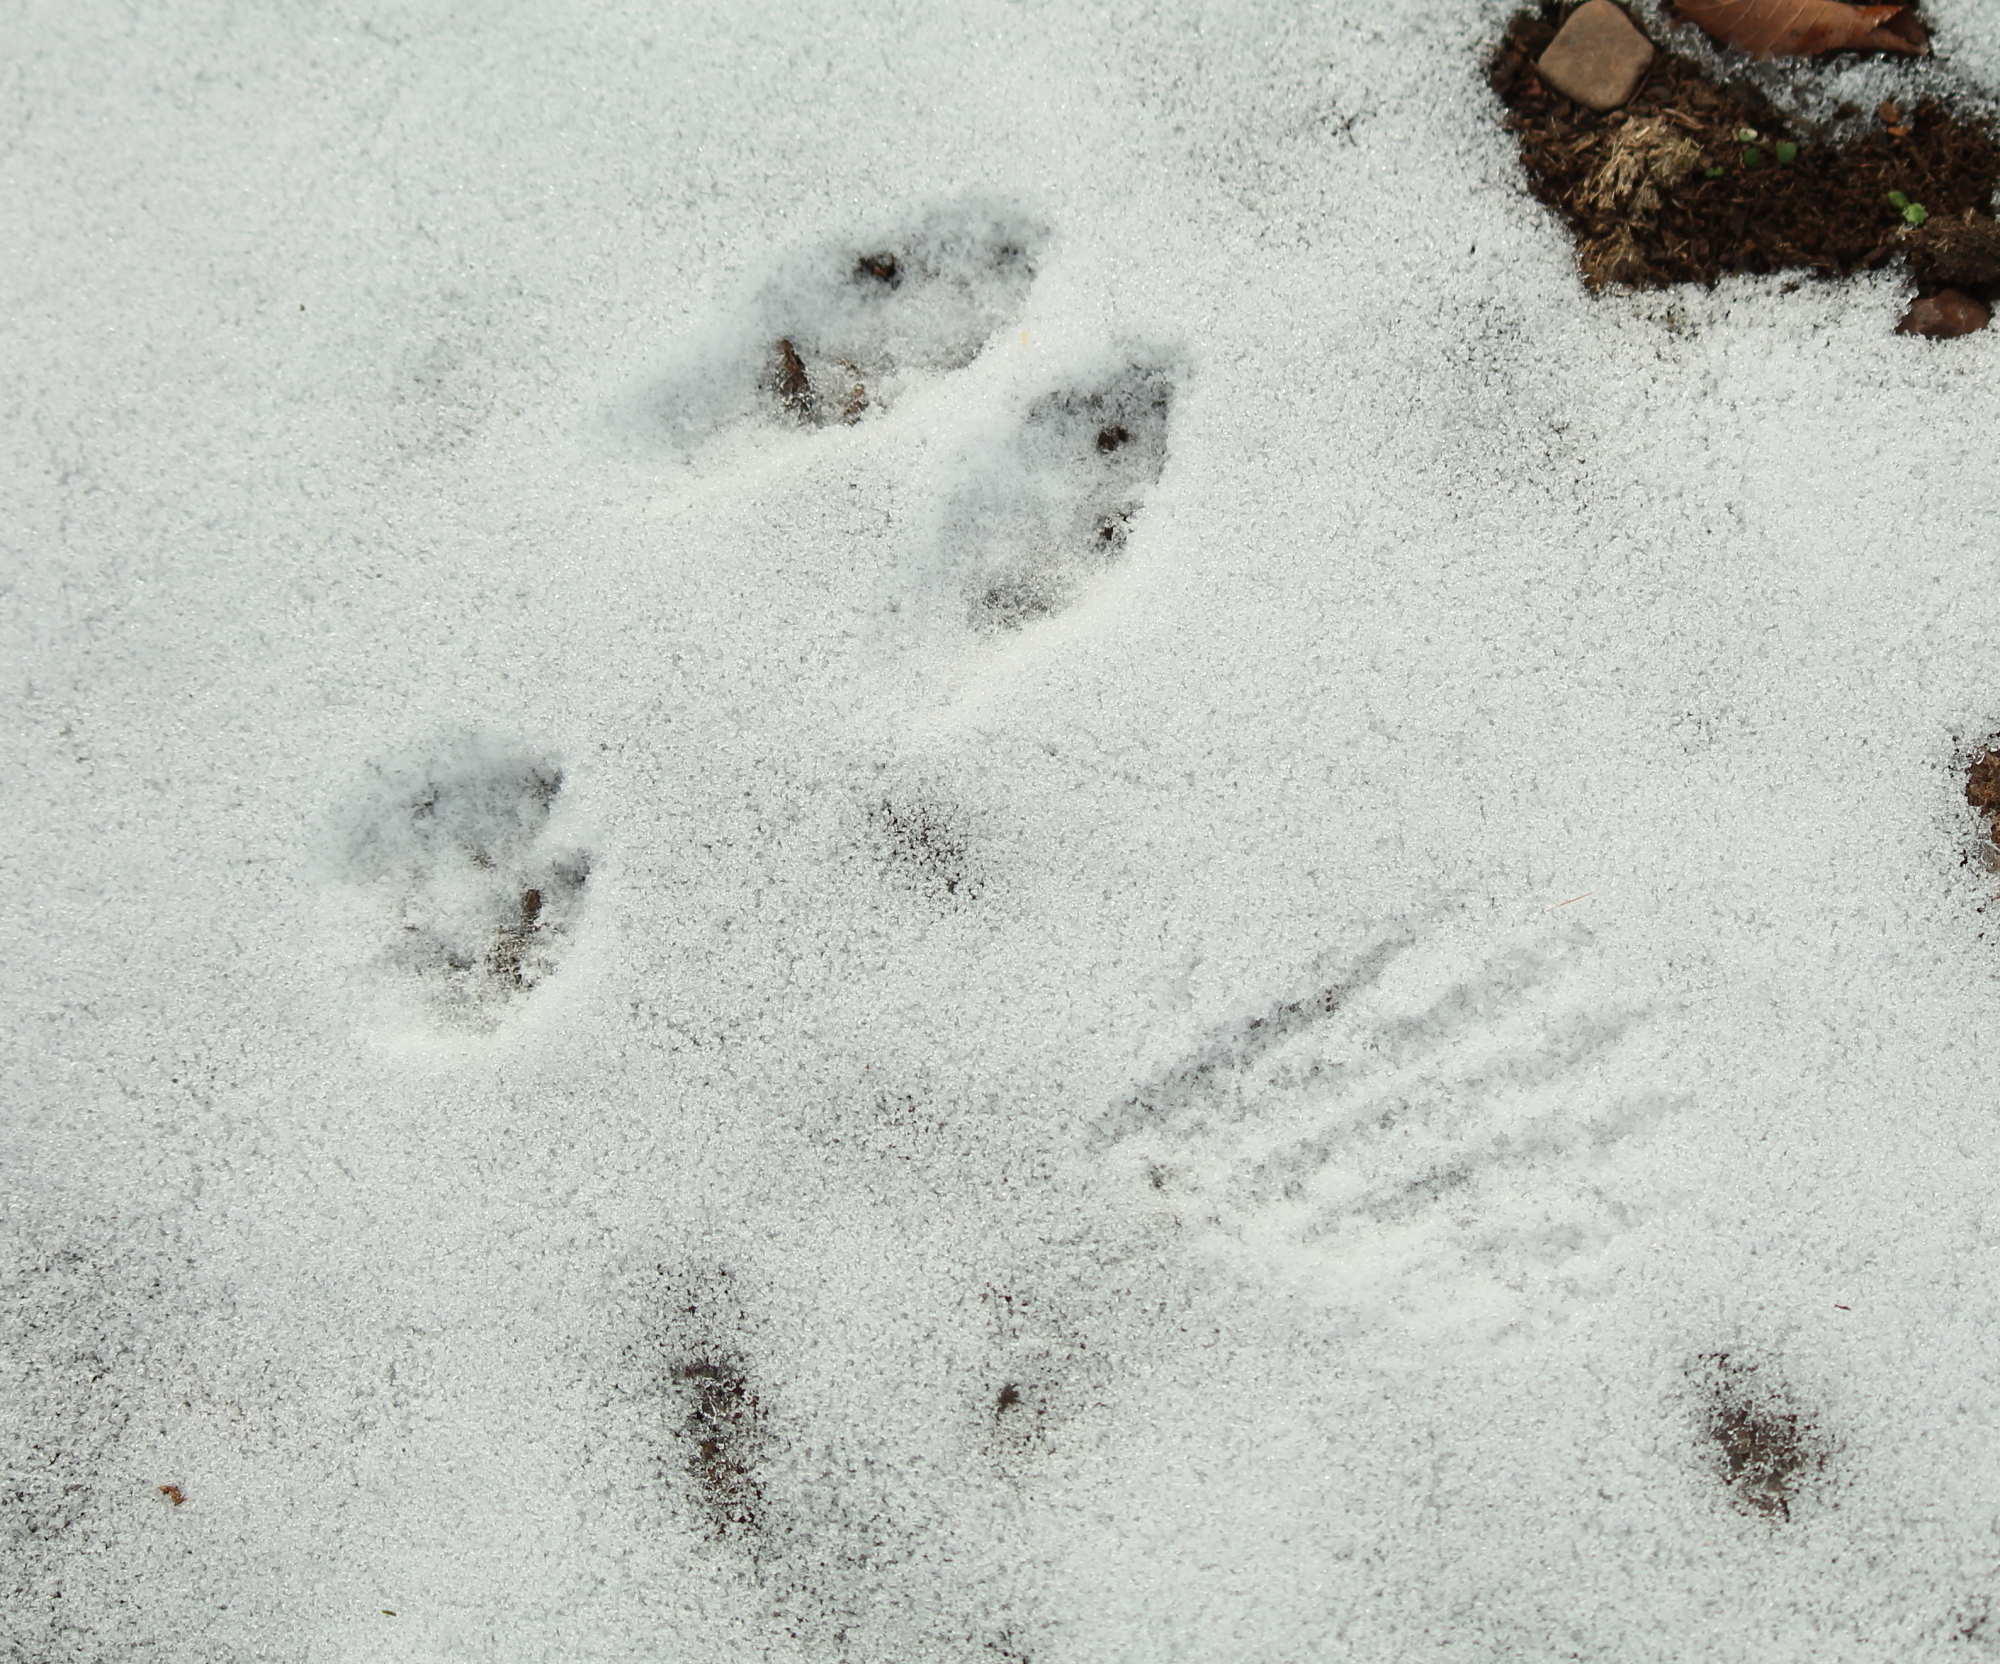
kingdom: Animalia
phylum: Chordata
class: Mammalia
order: Lagomorpha
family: Leporidae
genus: Sylvilagus
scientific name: Sylvilagus floridanus
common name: Eastern cottontail
